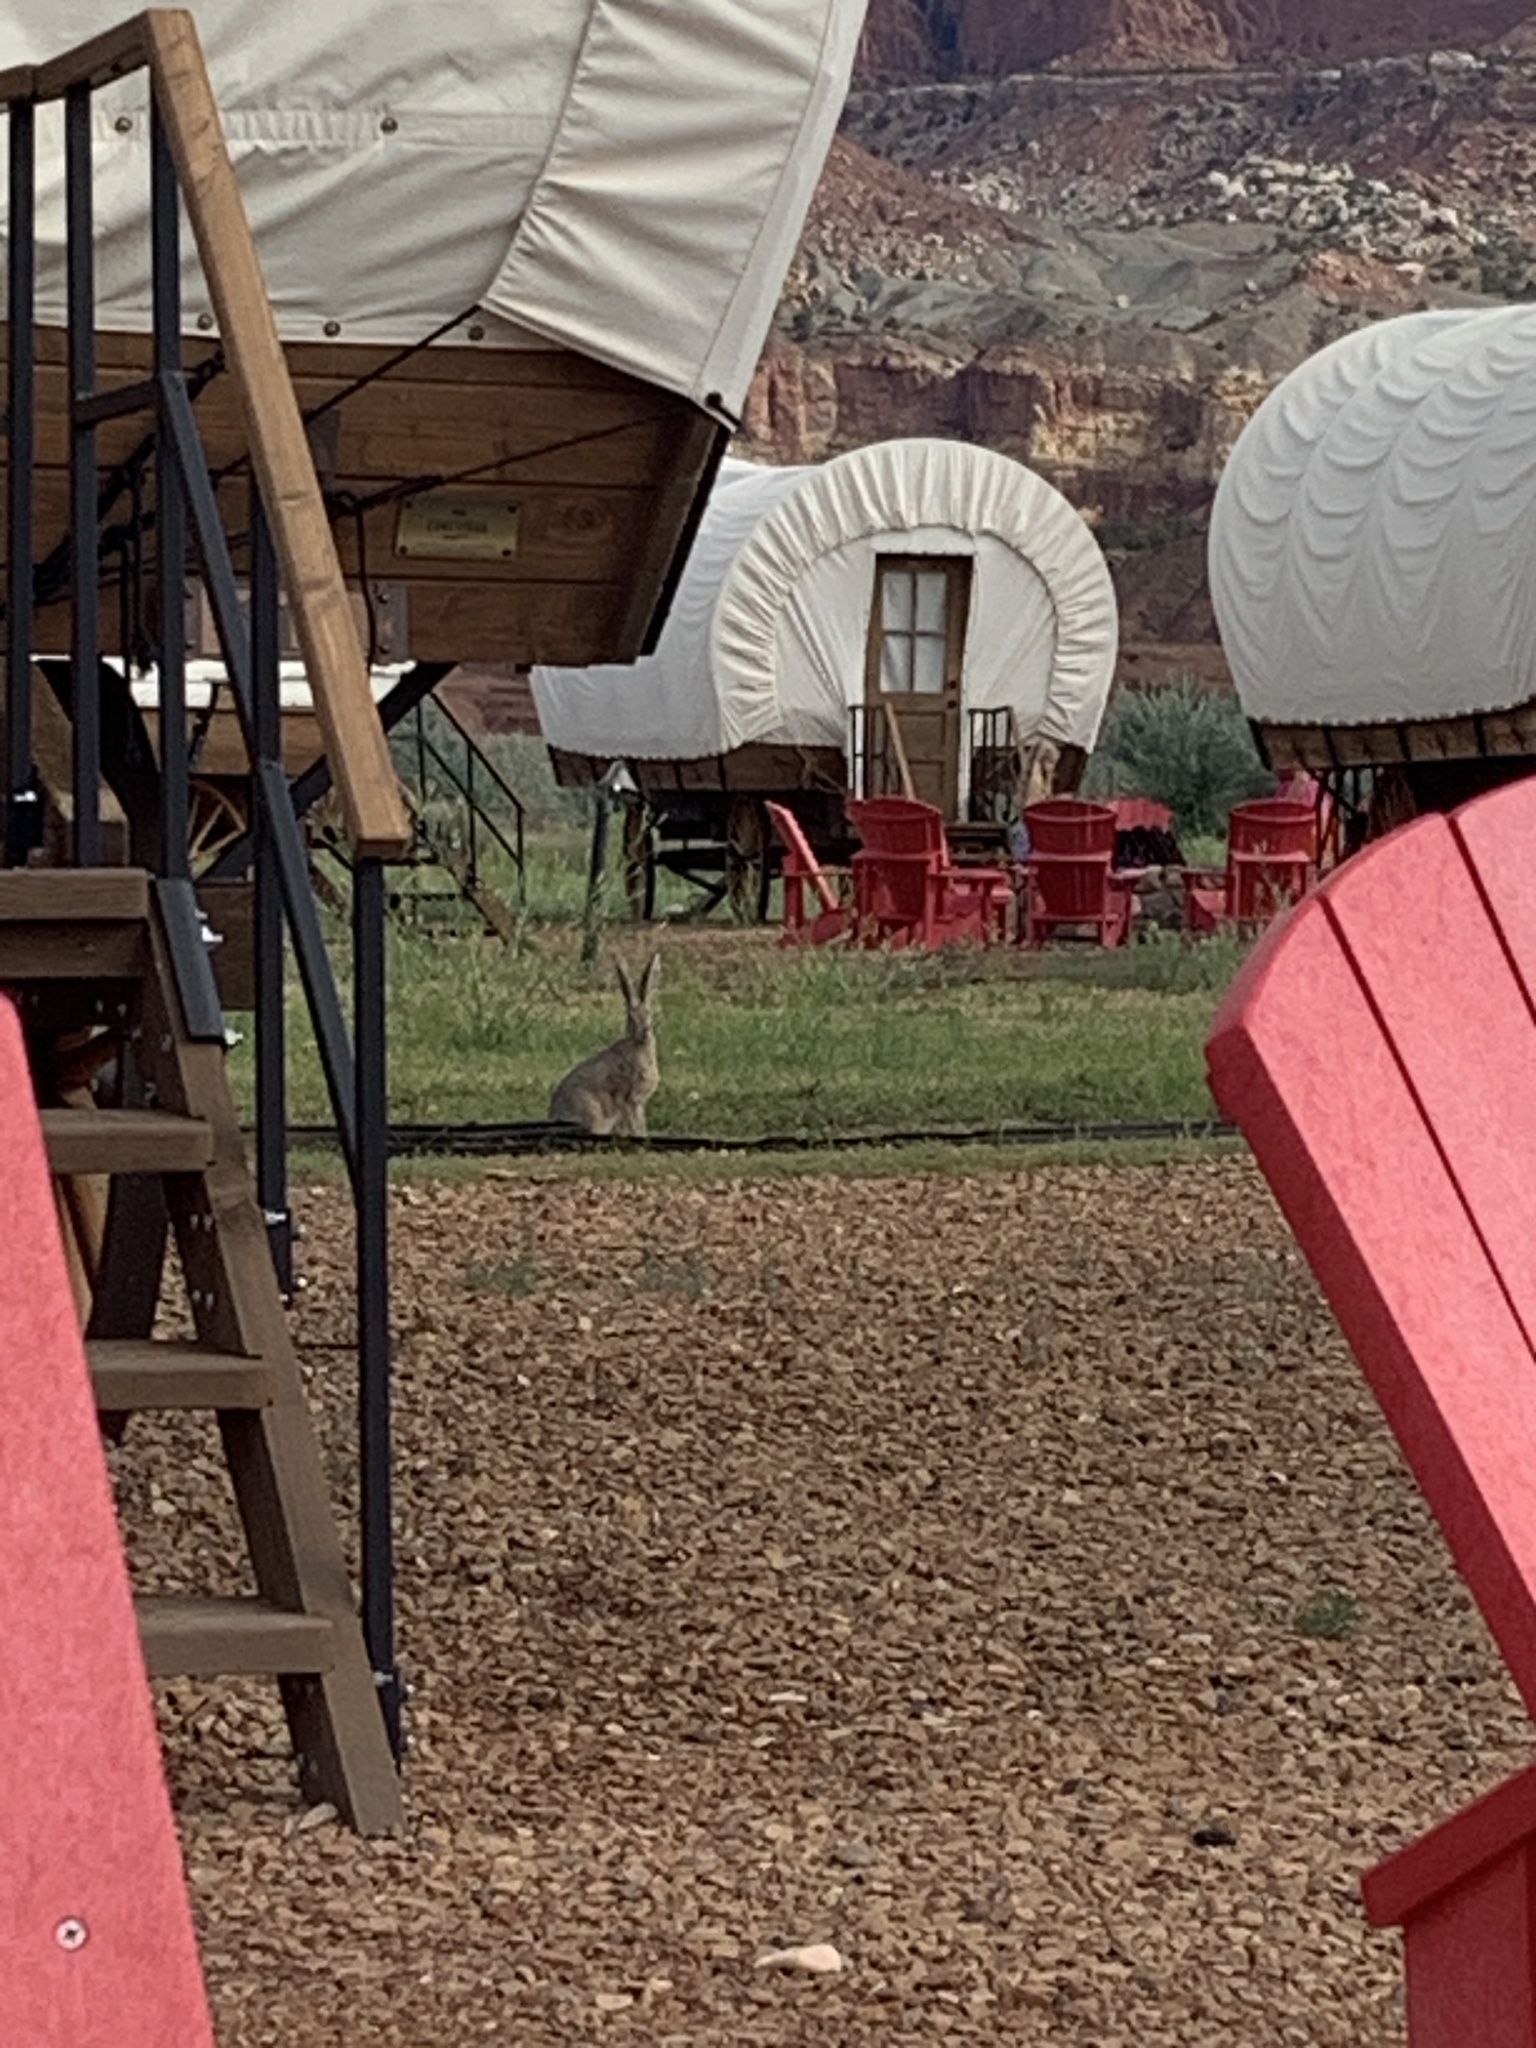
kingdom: Animalia
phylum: Chordata
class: Mammalia
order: Lagomorpha
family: Leporidae
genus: Lepus
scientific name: Lepus californicus
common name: Black-tailed jackrabbit
